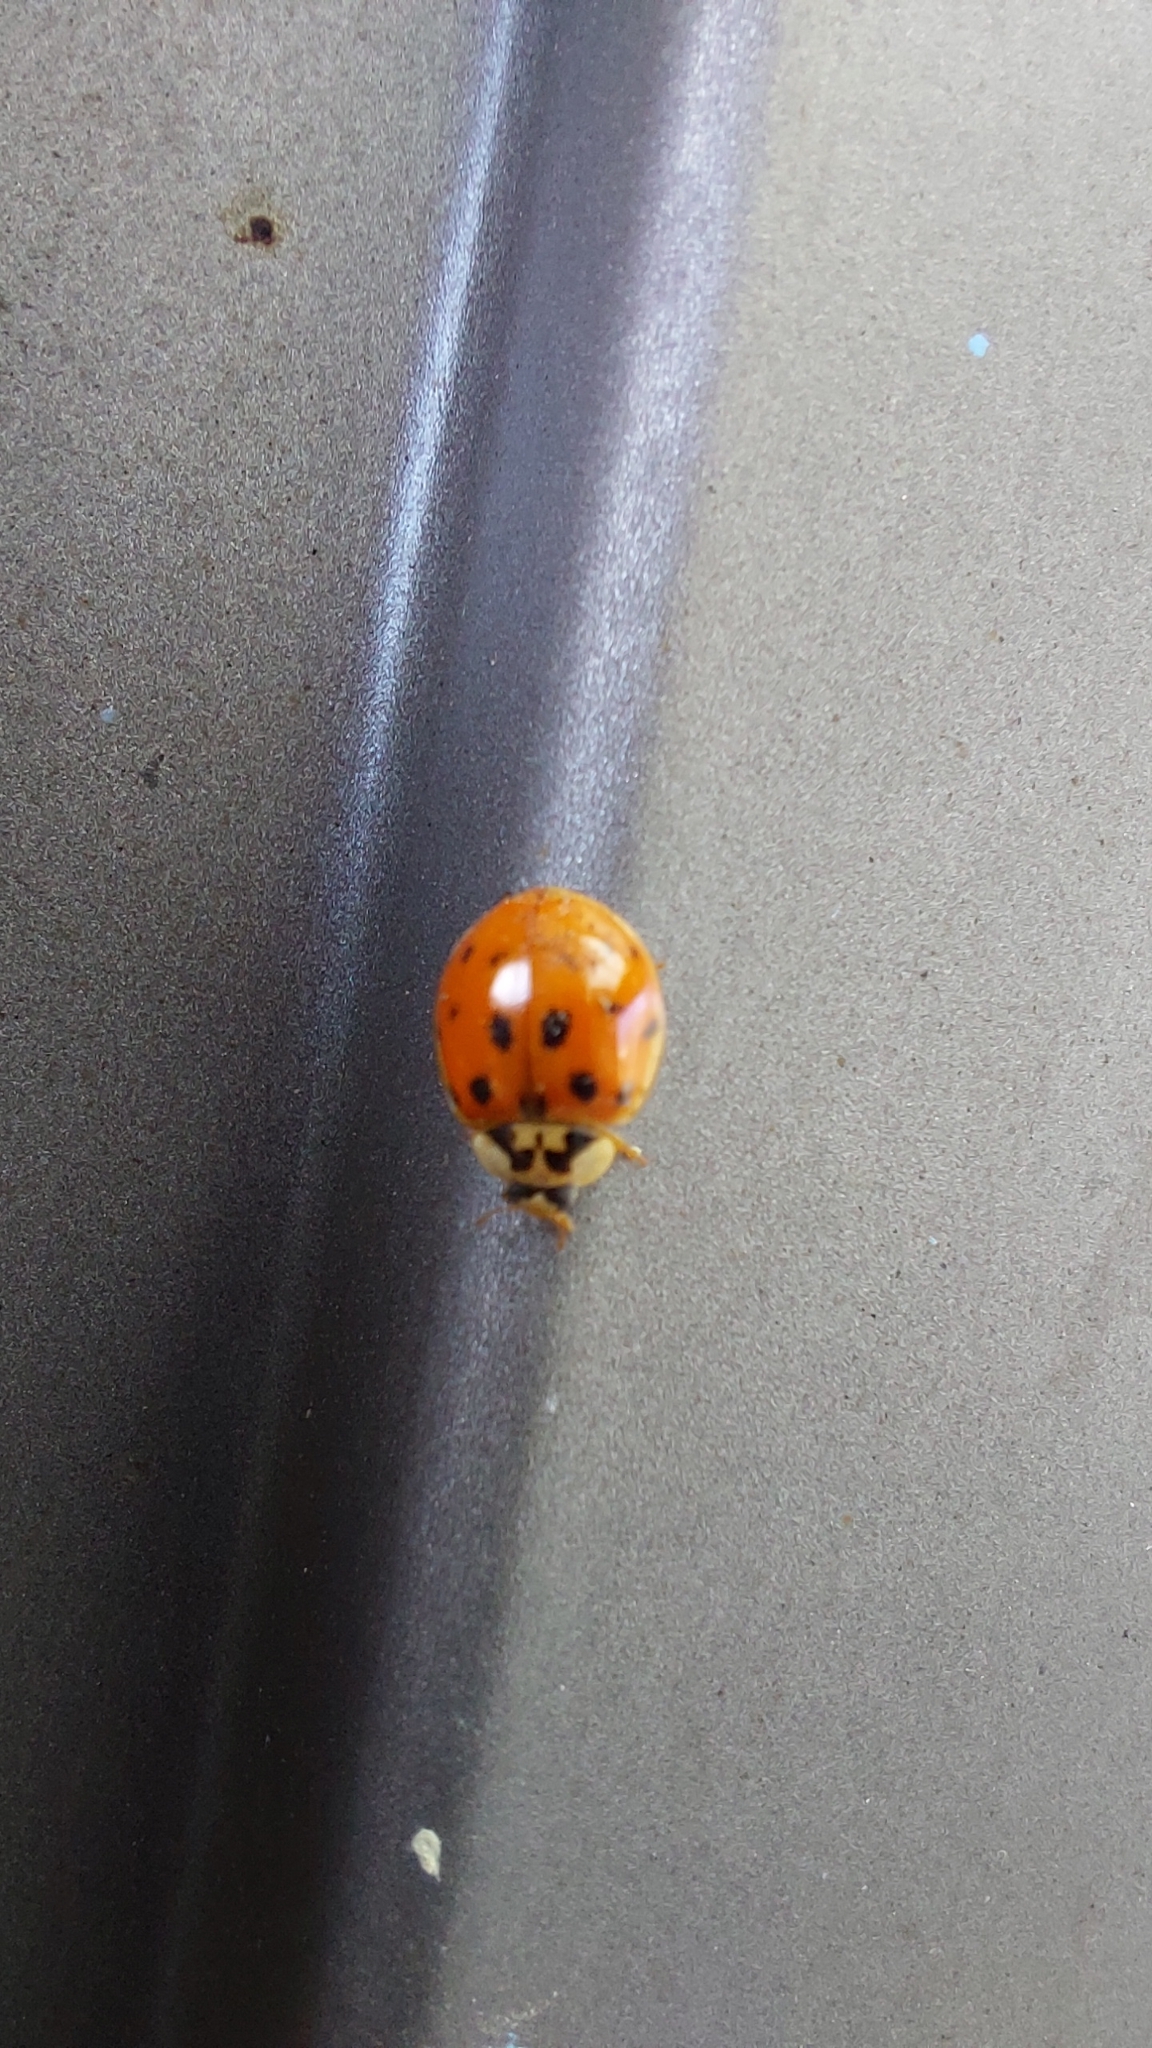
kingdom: Animalia
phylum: Arthropoda
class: Insecta
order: Coleoptera
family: Coccinellidae
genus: Harmonia
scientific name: Harmonia axyridis
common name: Harlequin ladybird
